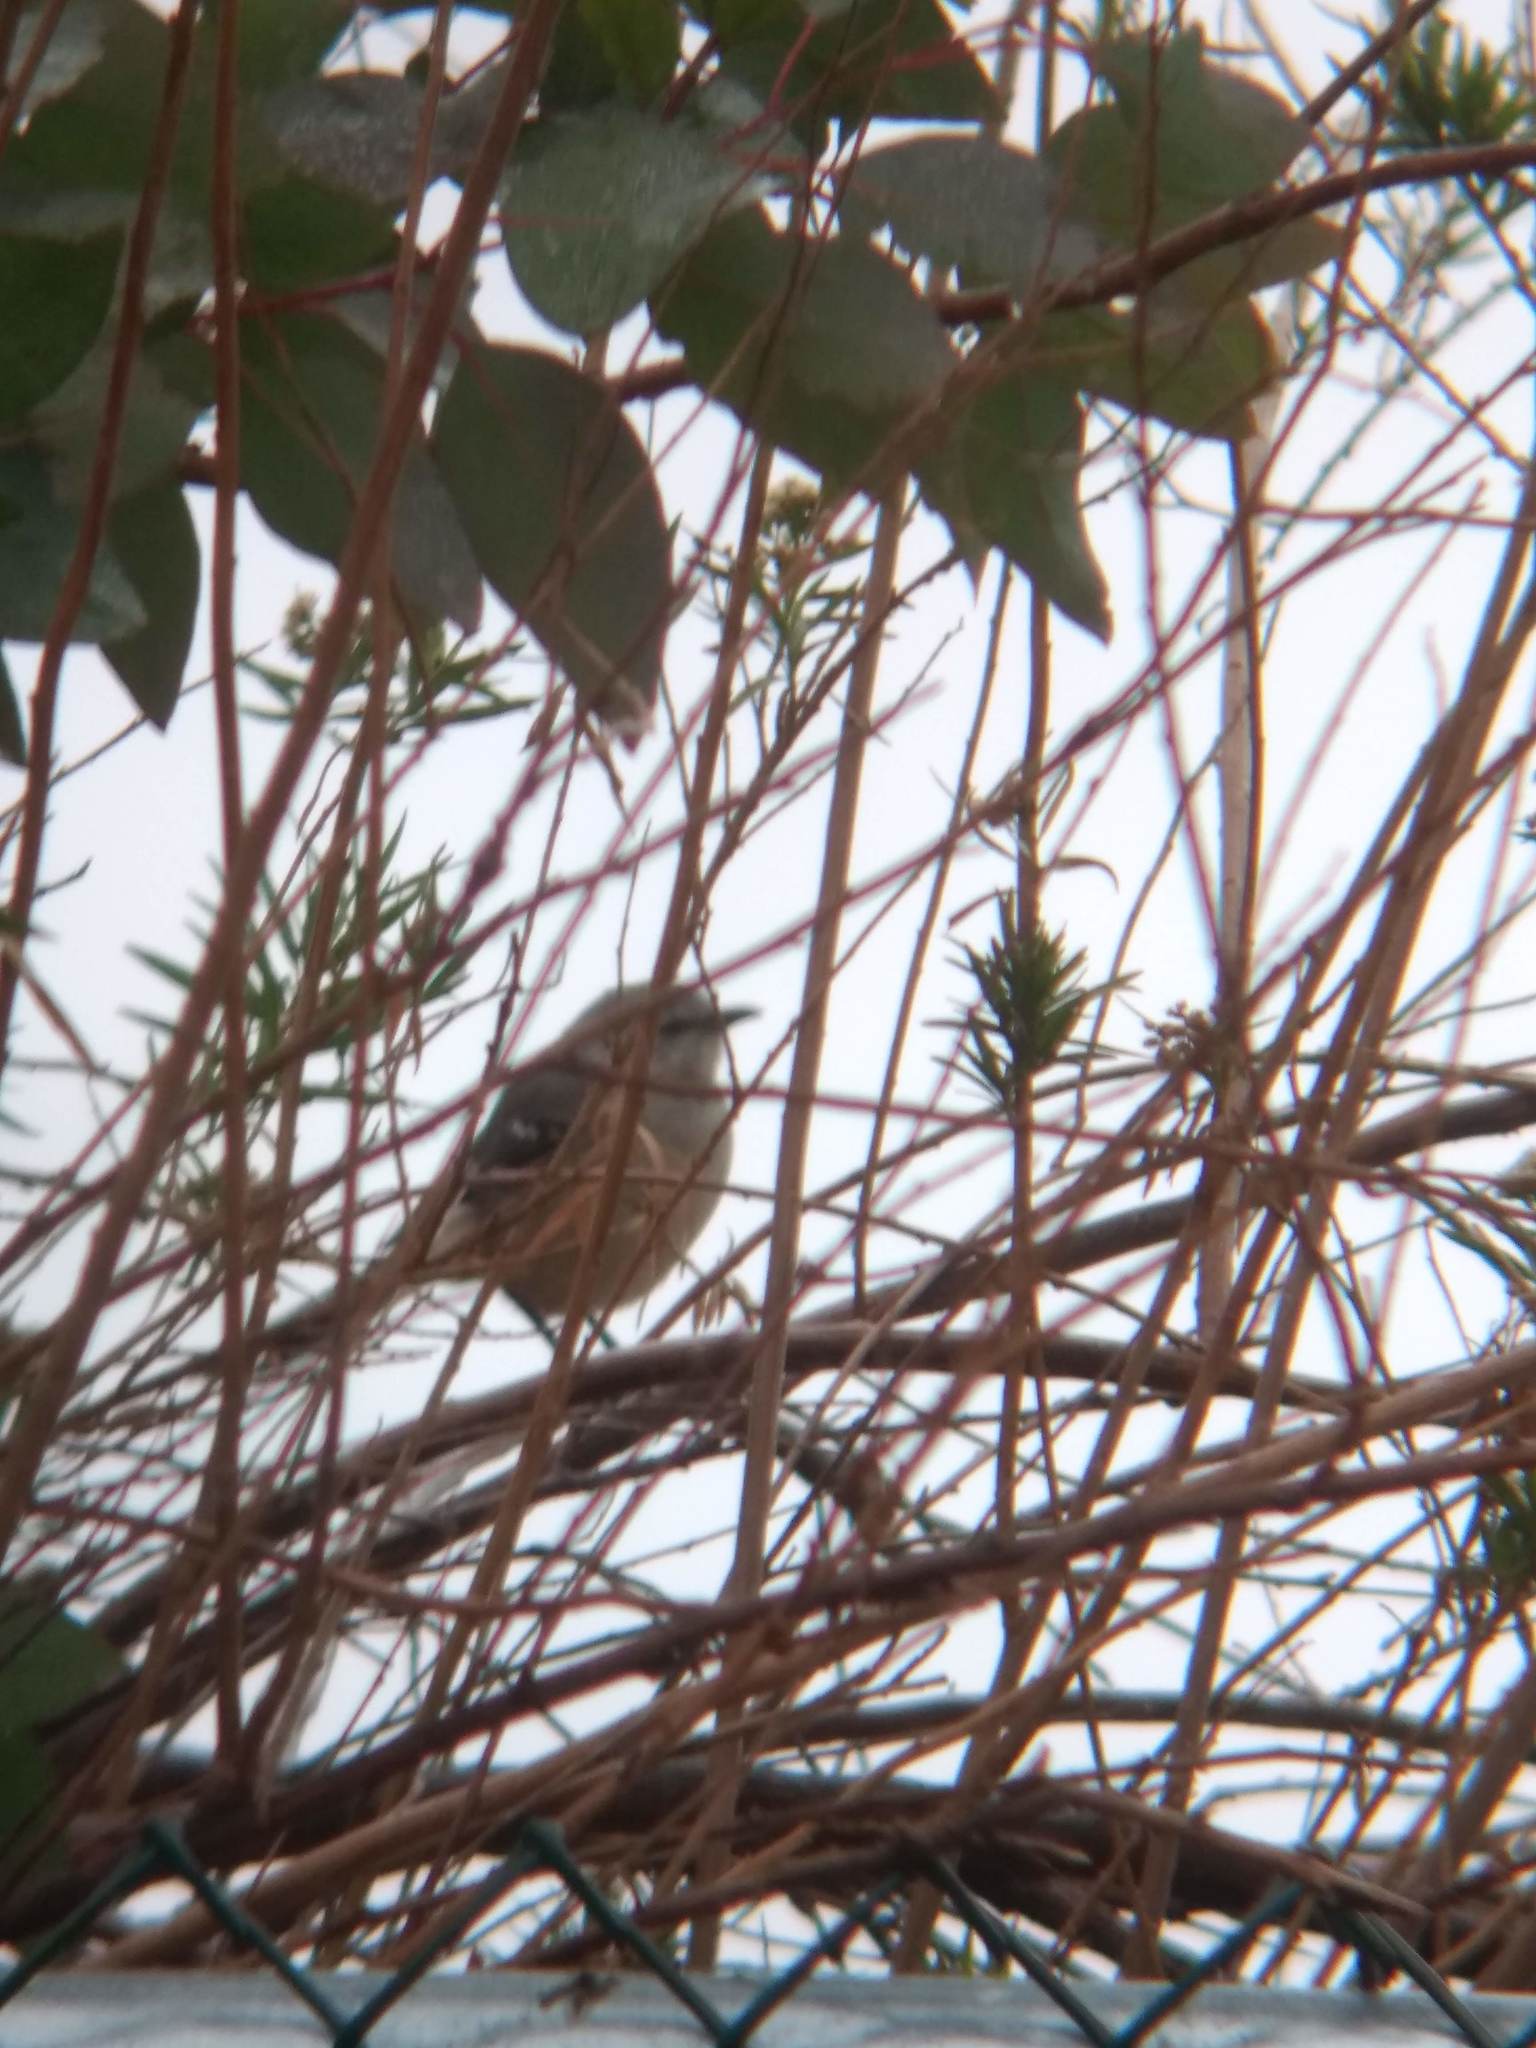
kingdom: Animalia
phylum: Chordata
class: Aves
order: Passeriformes
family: Mimidae
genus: Mimus
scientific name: Mimus polyglottos
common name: Northern mockingbird
